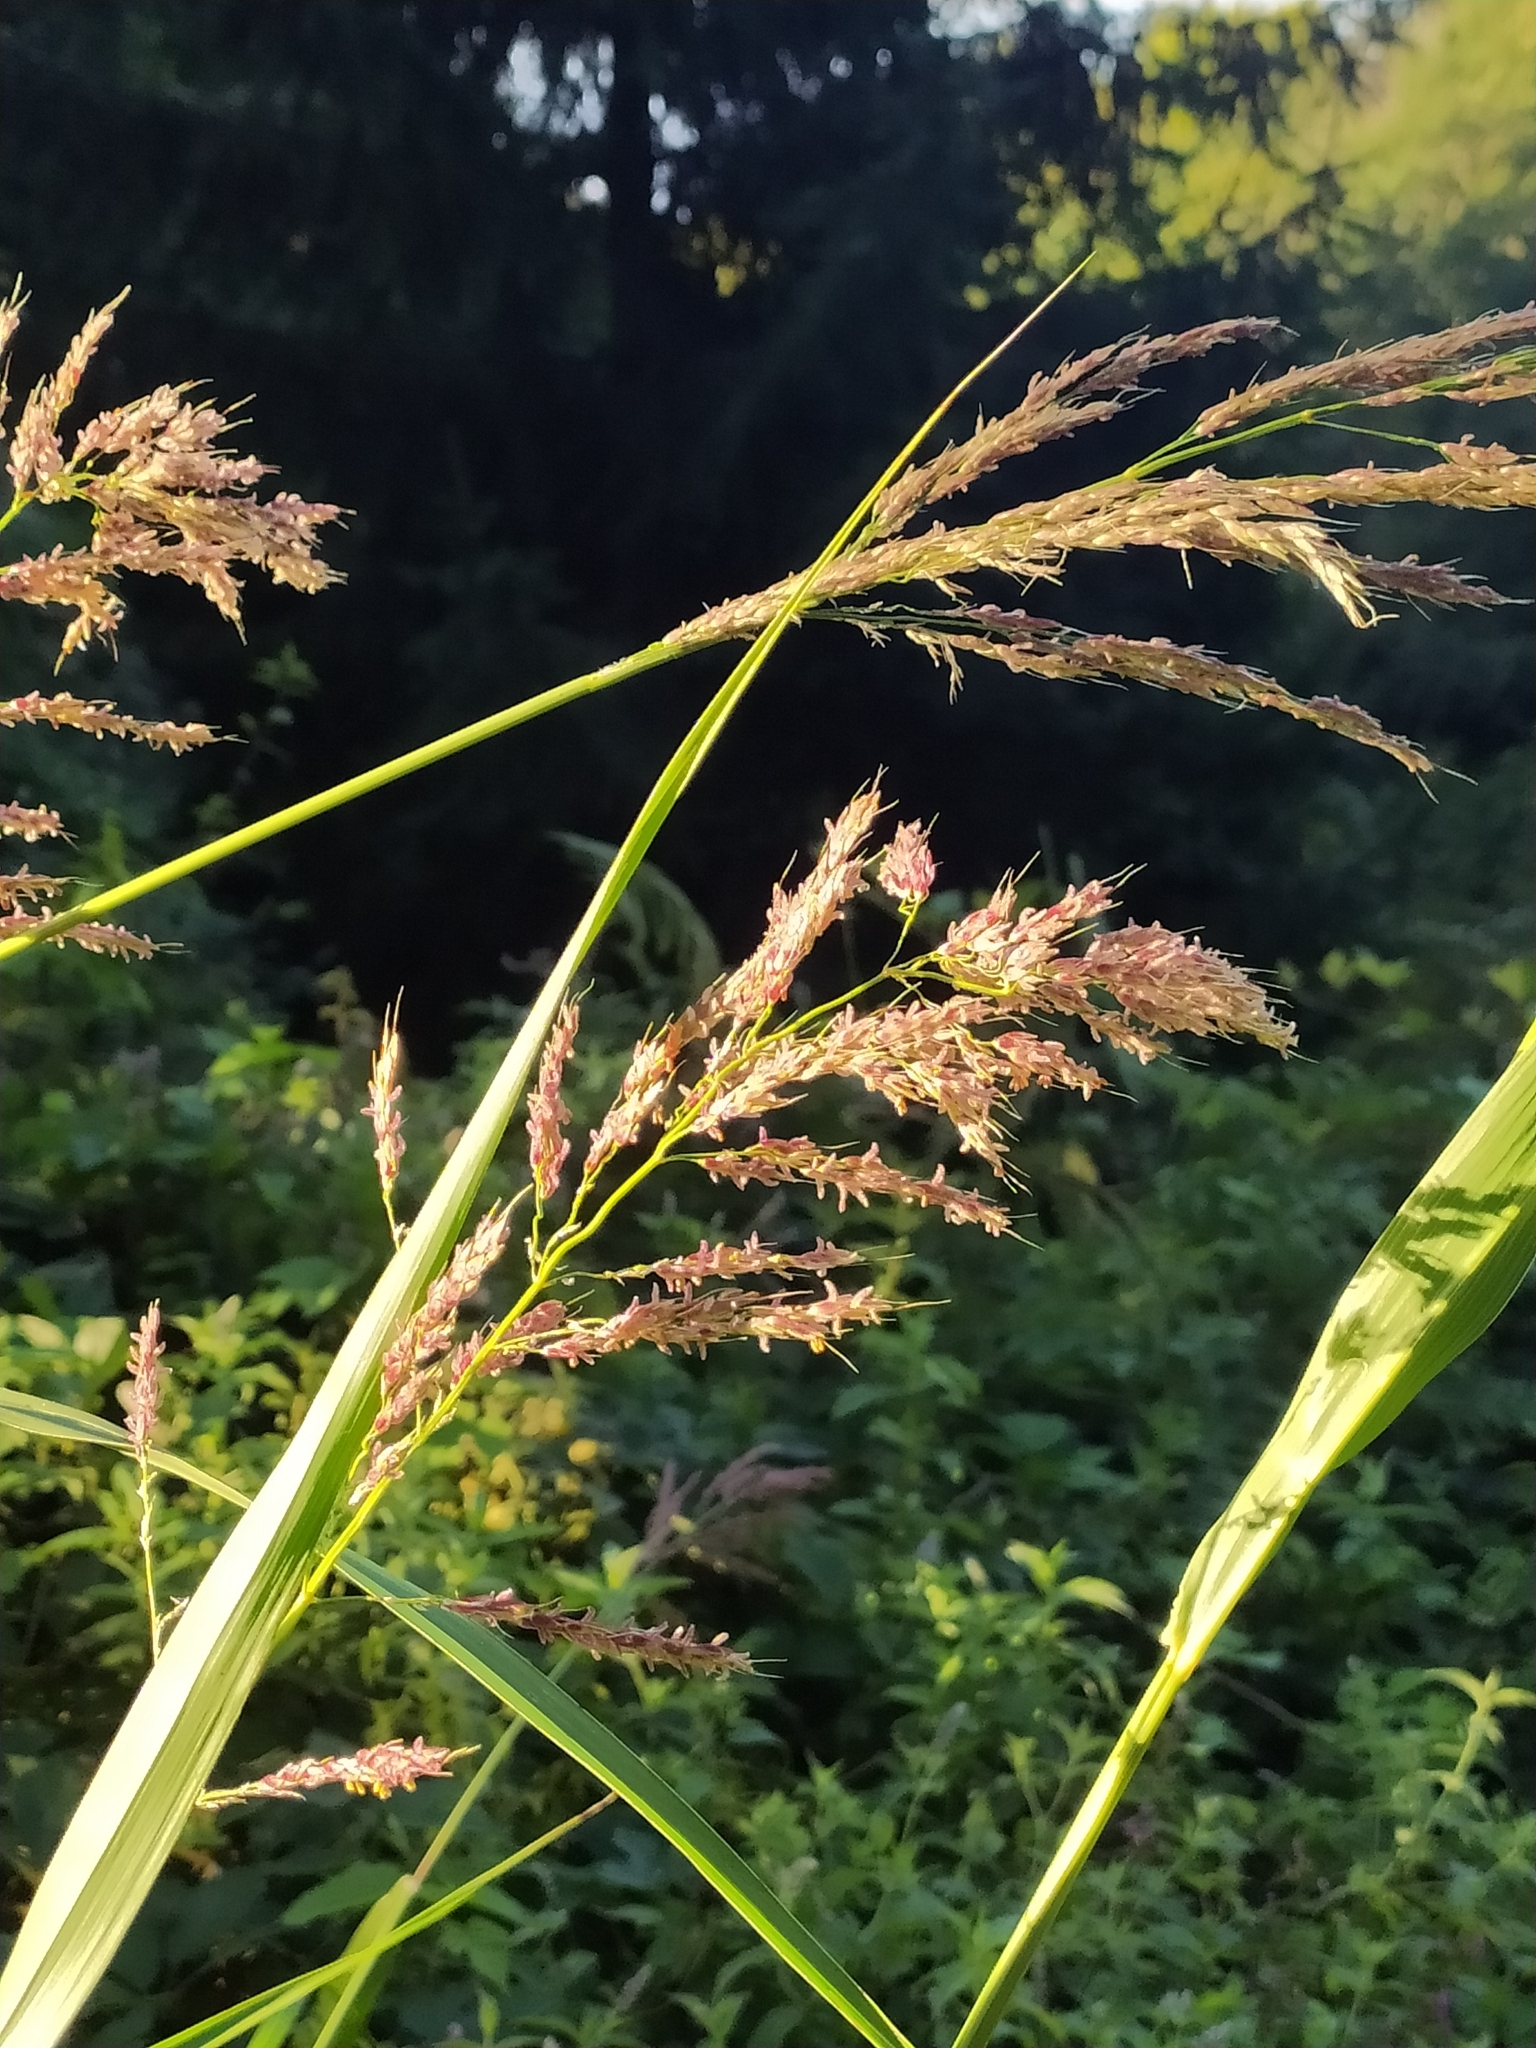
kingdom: Plantae
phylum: Tracheophyta
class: Liliopsida
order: Poales
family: Poaceae
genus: Sorghum
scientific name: Sorghum halepense
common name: Johnson-grass
